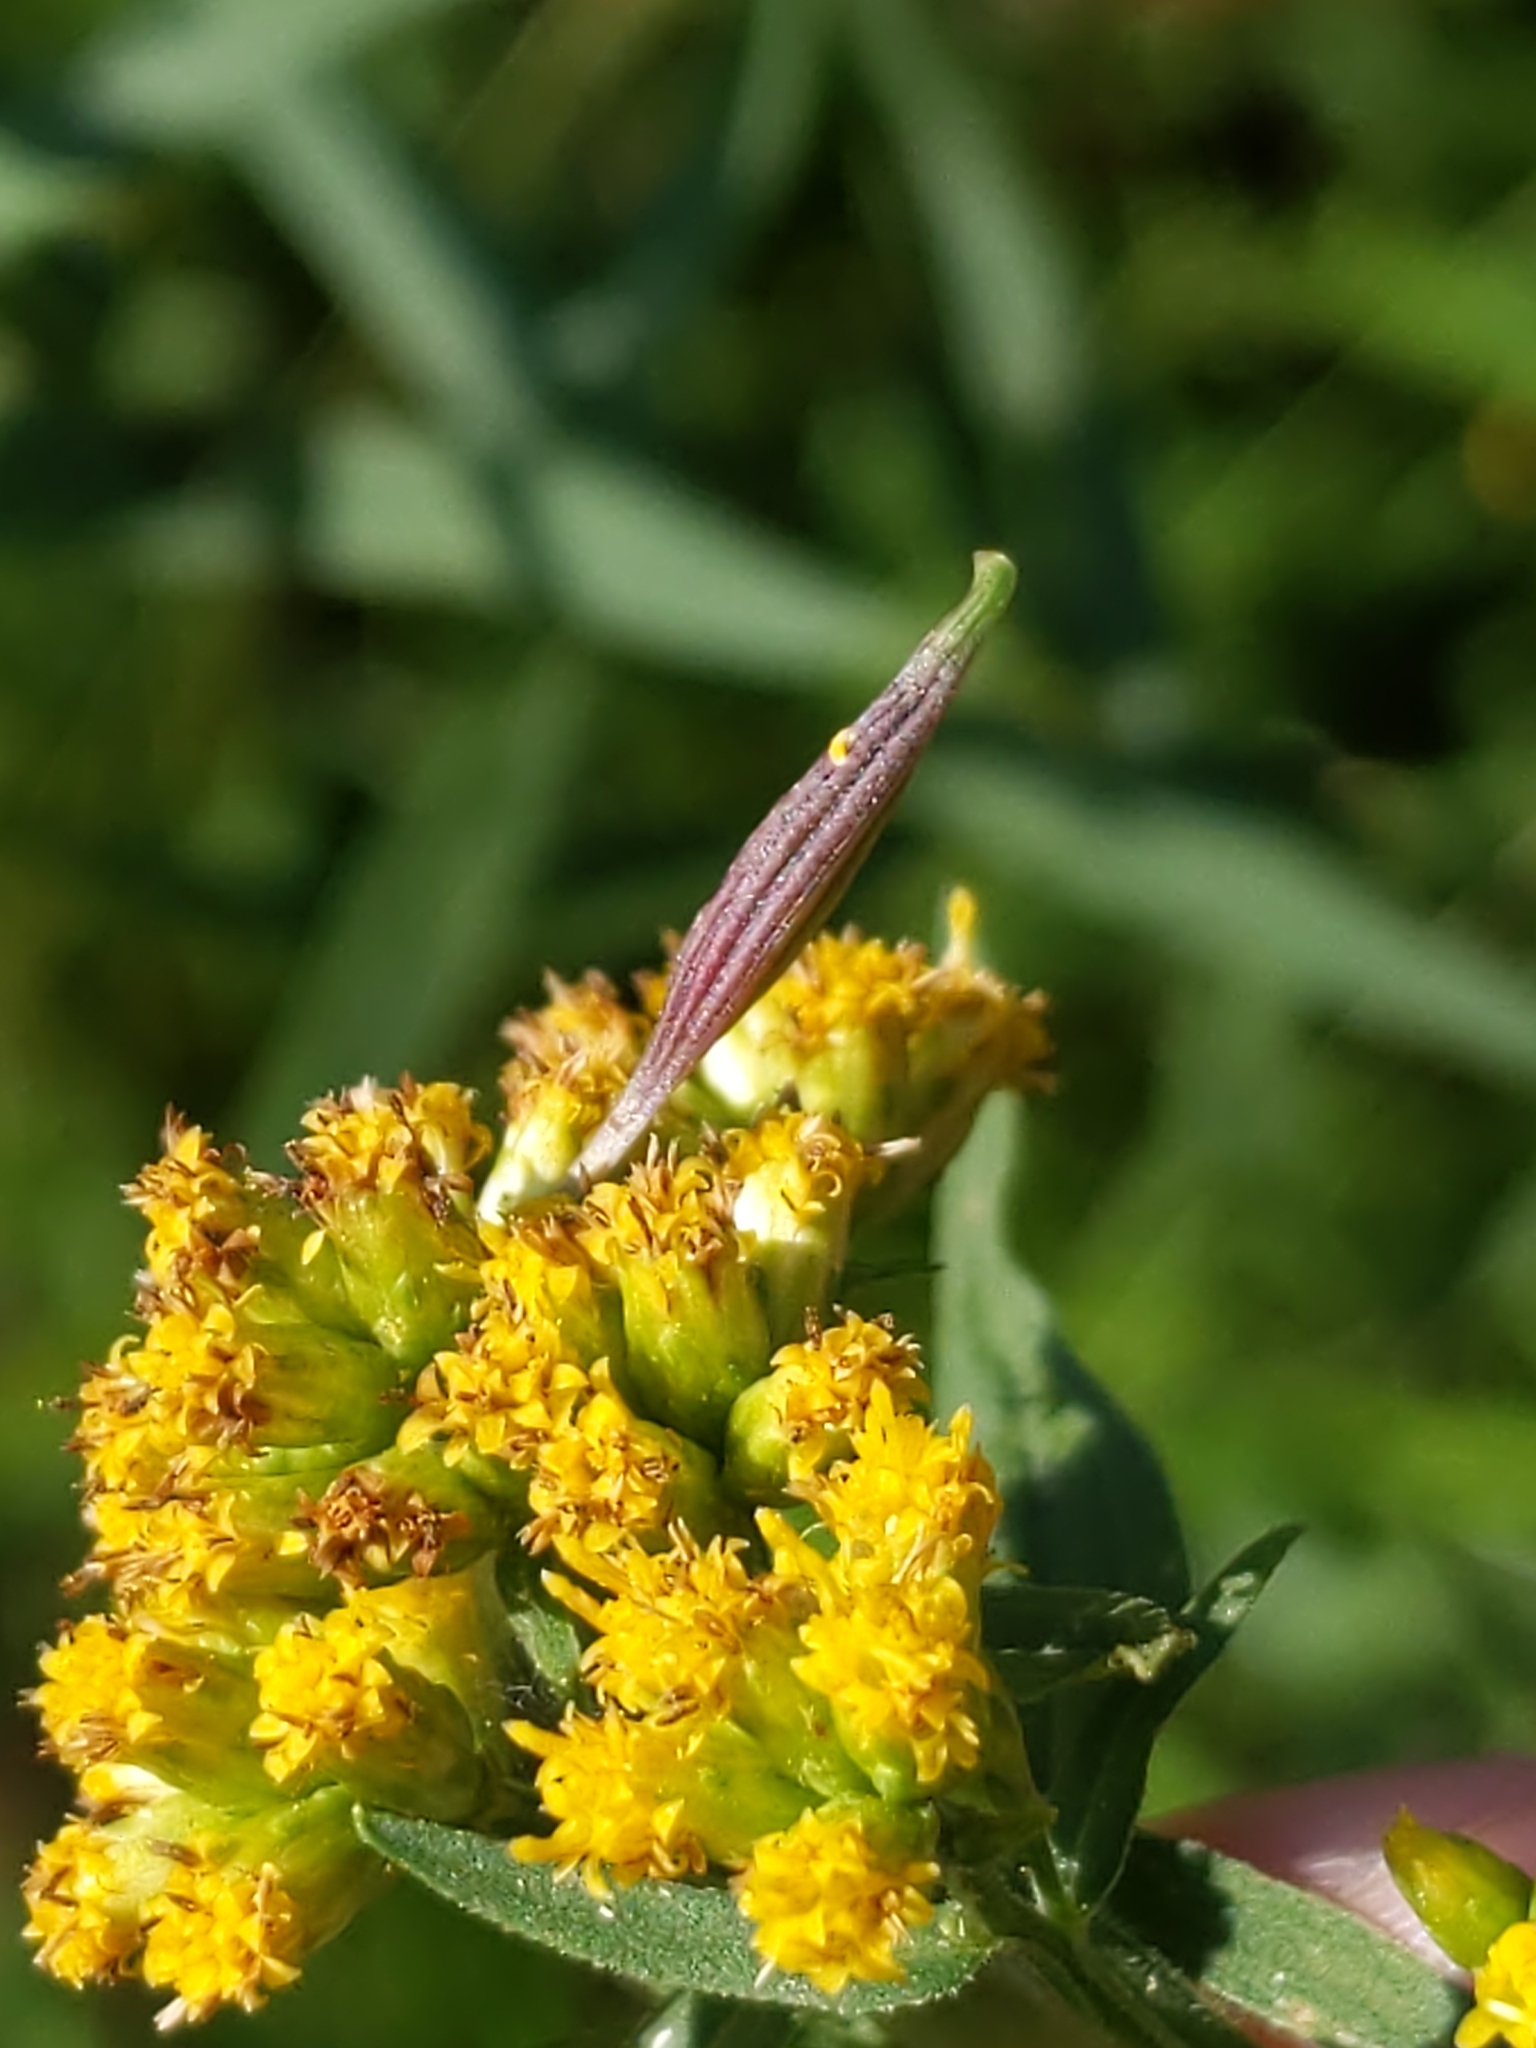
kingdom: Animalia
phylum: Arthropoda
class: Insecta
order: Diptera
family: Cecidomyiidae
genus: Rhopalomyia
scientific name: Rhopalomyia pedicellata
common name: Goldentop pedicellate gall midge
